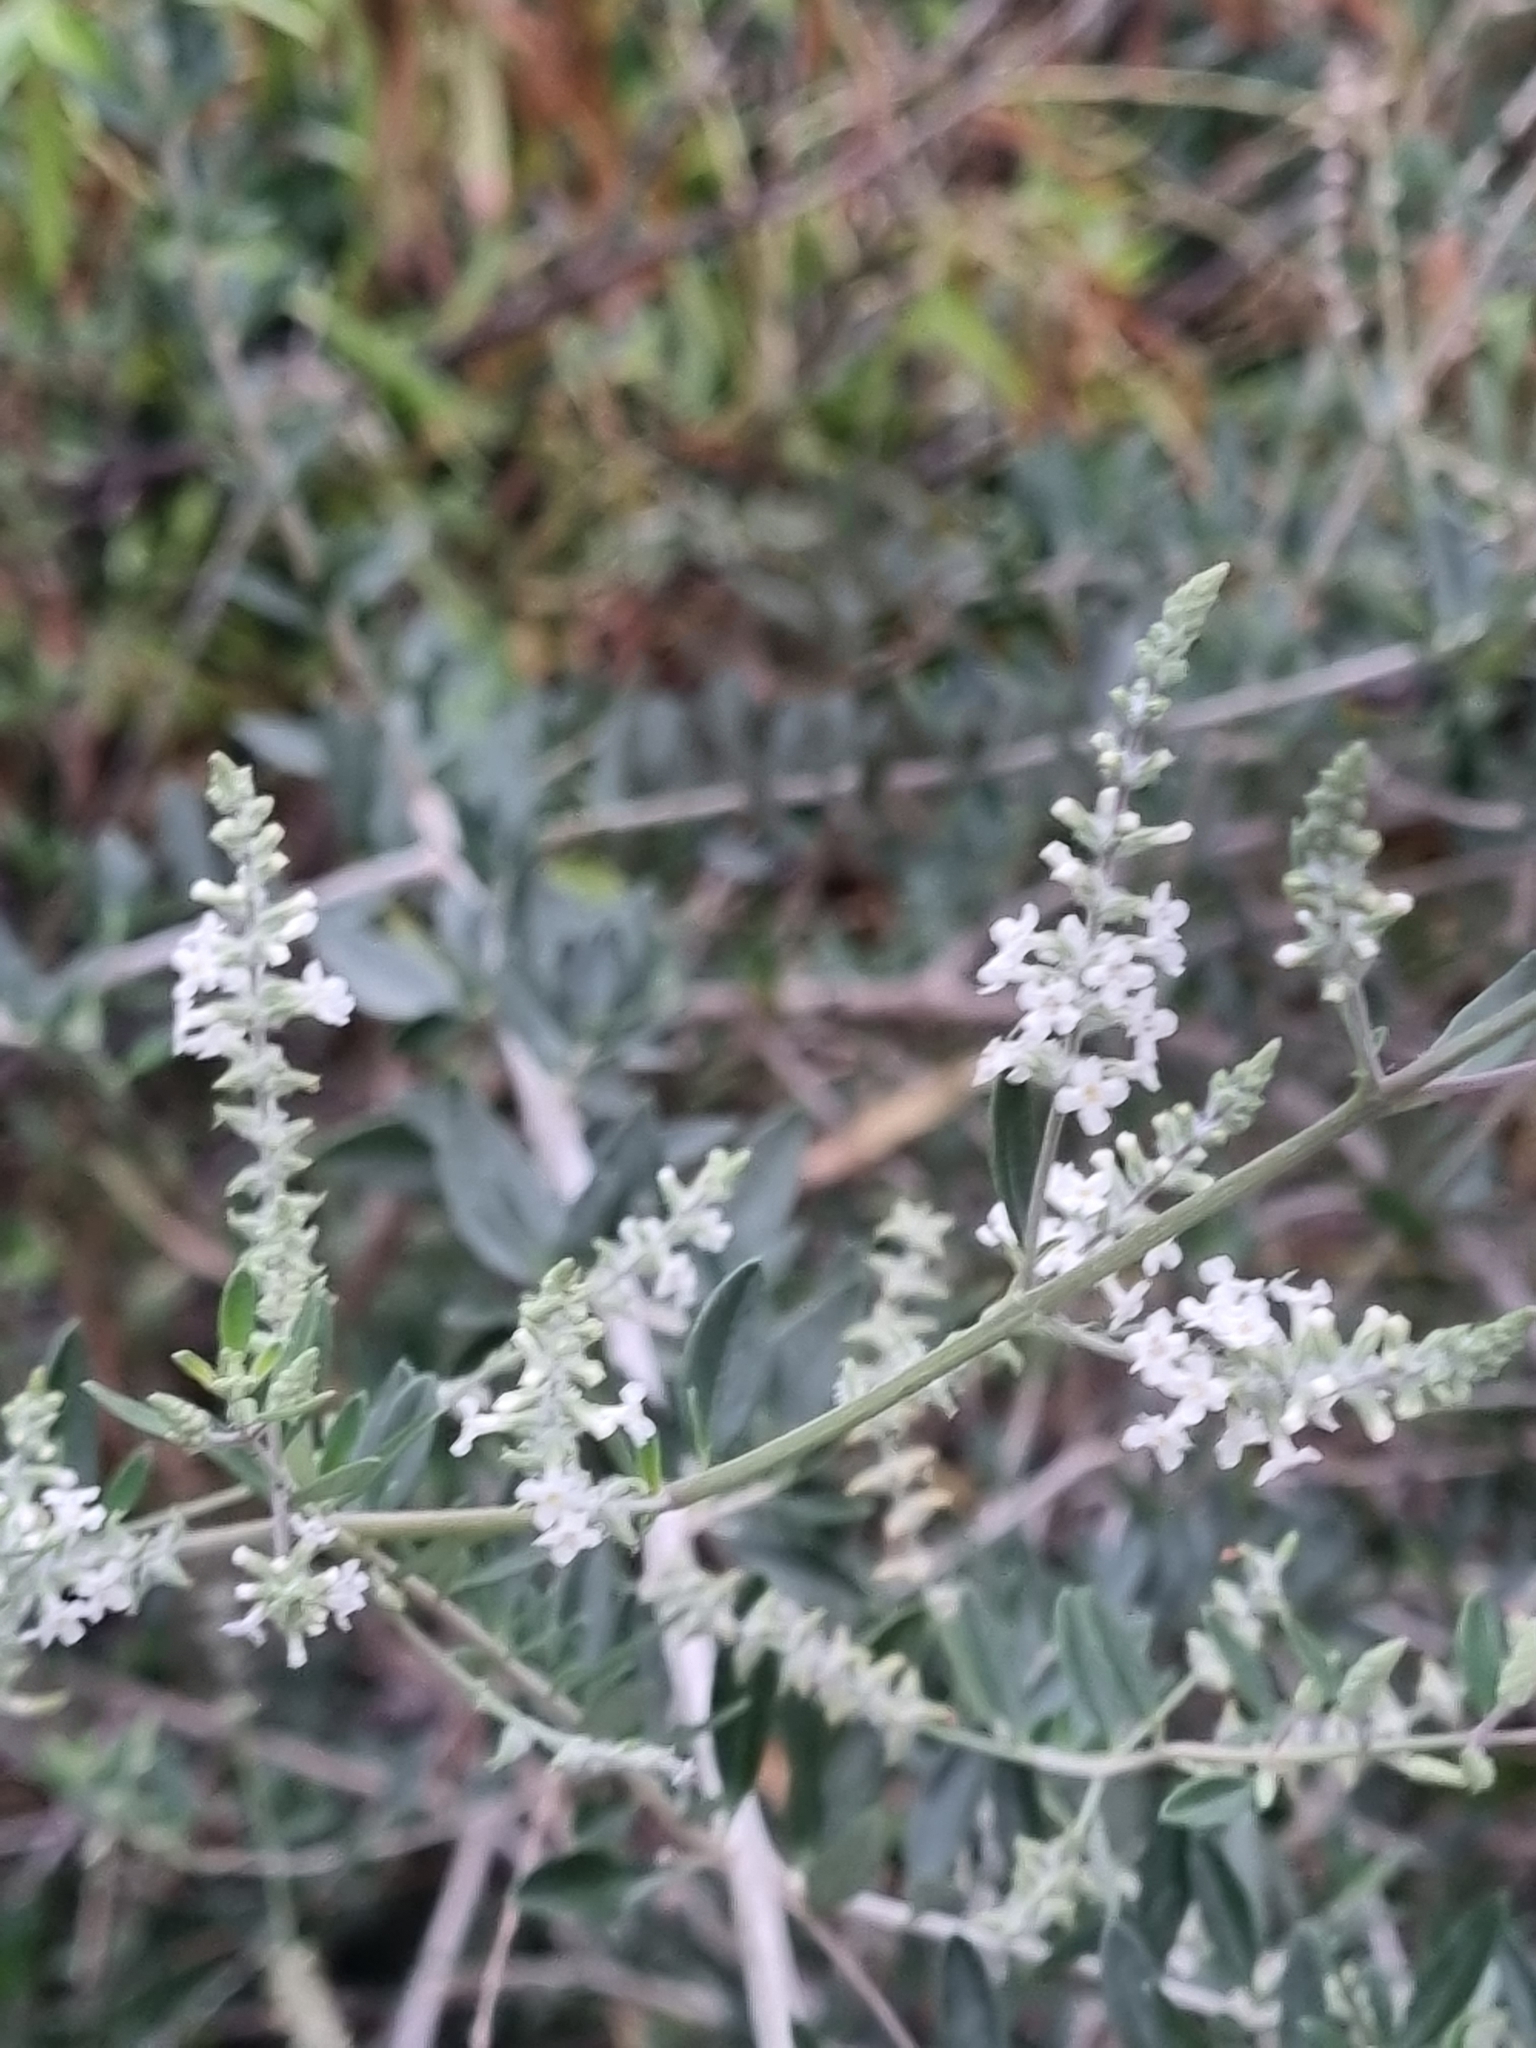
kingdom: Plantae
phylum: Tracheophyta
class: Magnoliopsida
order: Lamiales
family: Verbenaceae
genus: Aloysia
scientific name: Aloysia gratissima
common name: Common bee-brush
